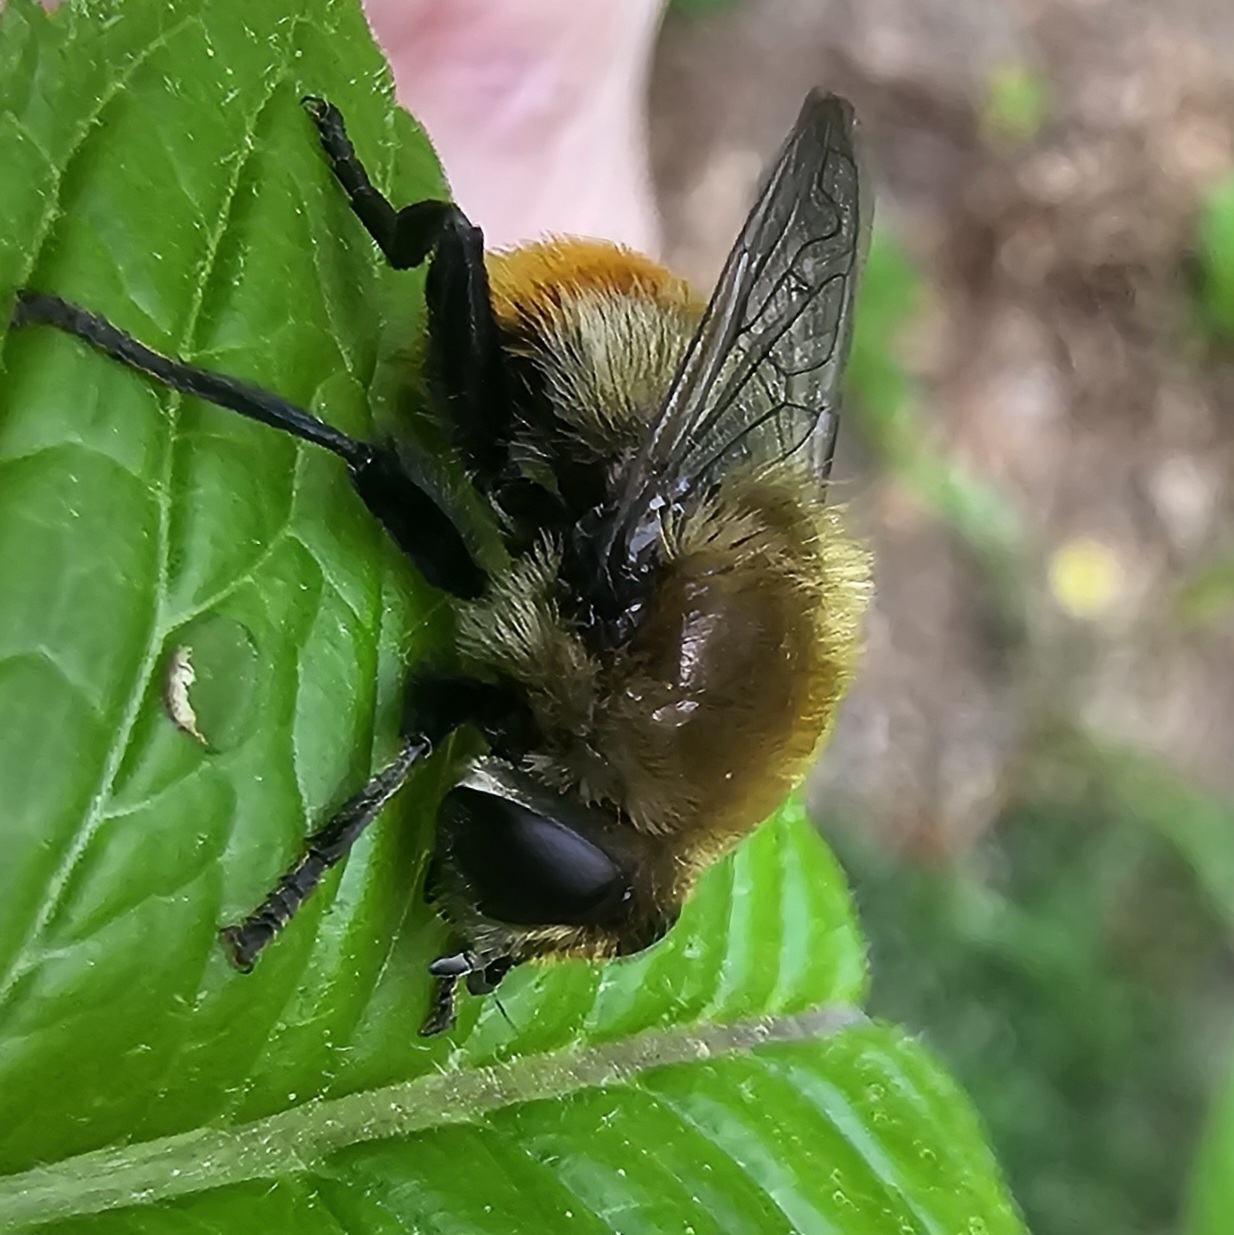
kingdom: Animalia
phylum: Arthropoda
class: Insecta
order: Diptera
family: Syrphidae
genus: Merodon
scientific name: Merodon equestris
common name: Greater bulb-fly
